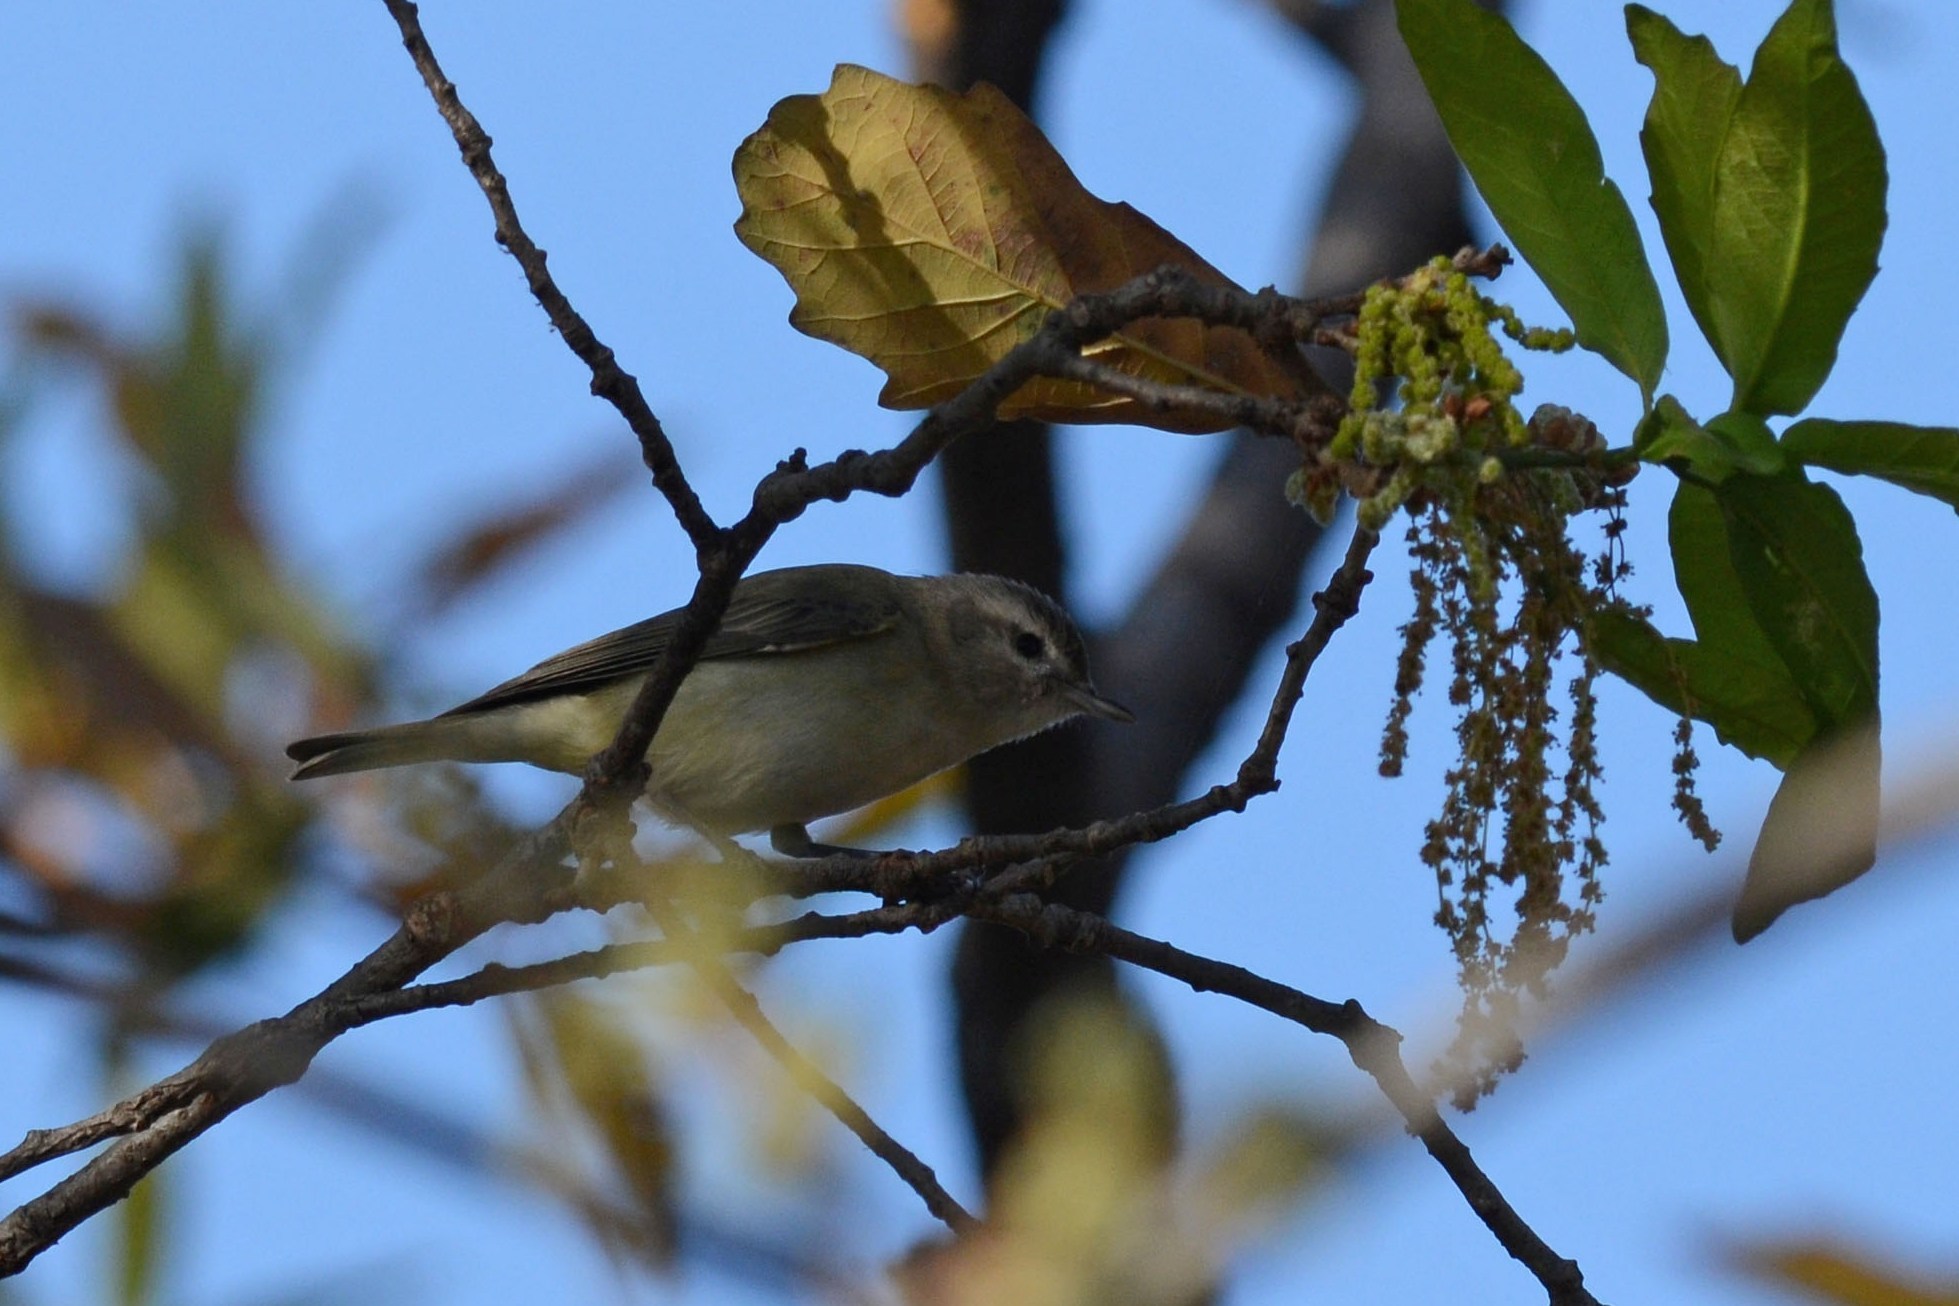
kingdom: Animalia
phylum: Chordata
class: Aves
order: Passeriformes
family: Vireonidae
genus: Vireo
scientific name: Vireo gilvus
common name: Warbling vireo
